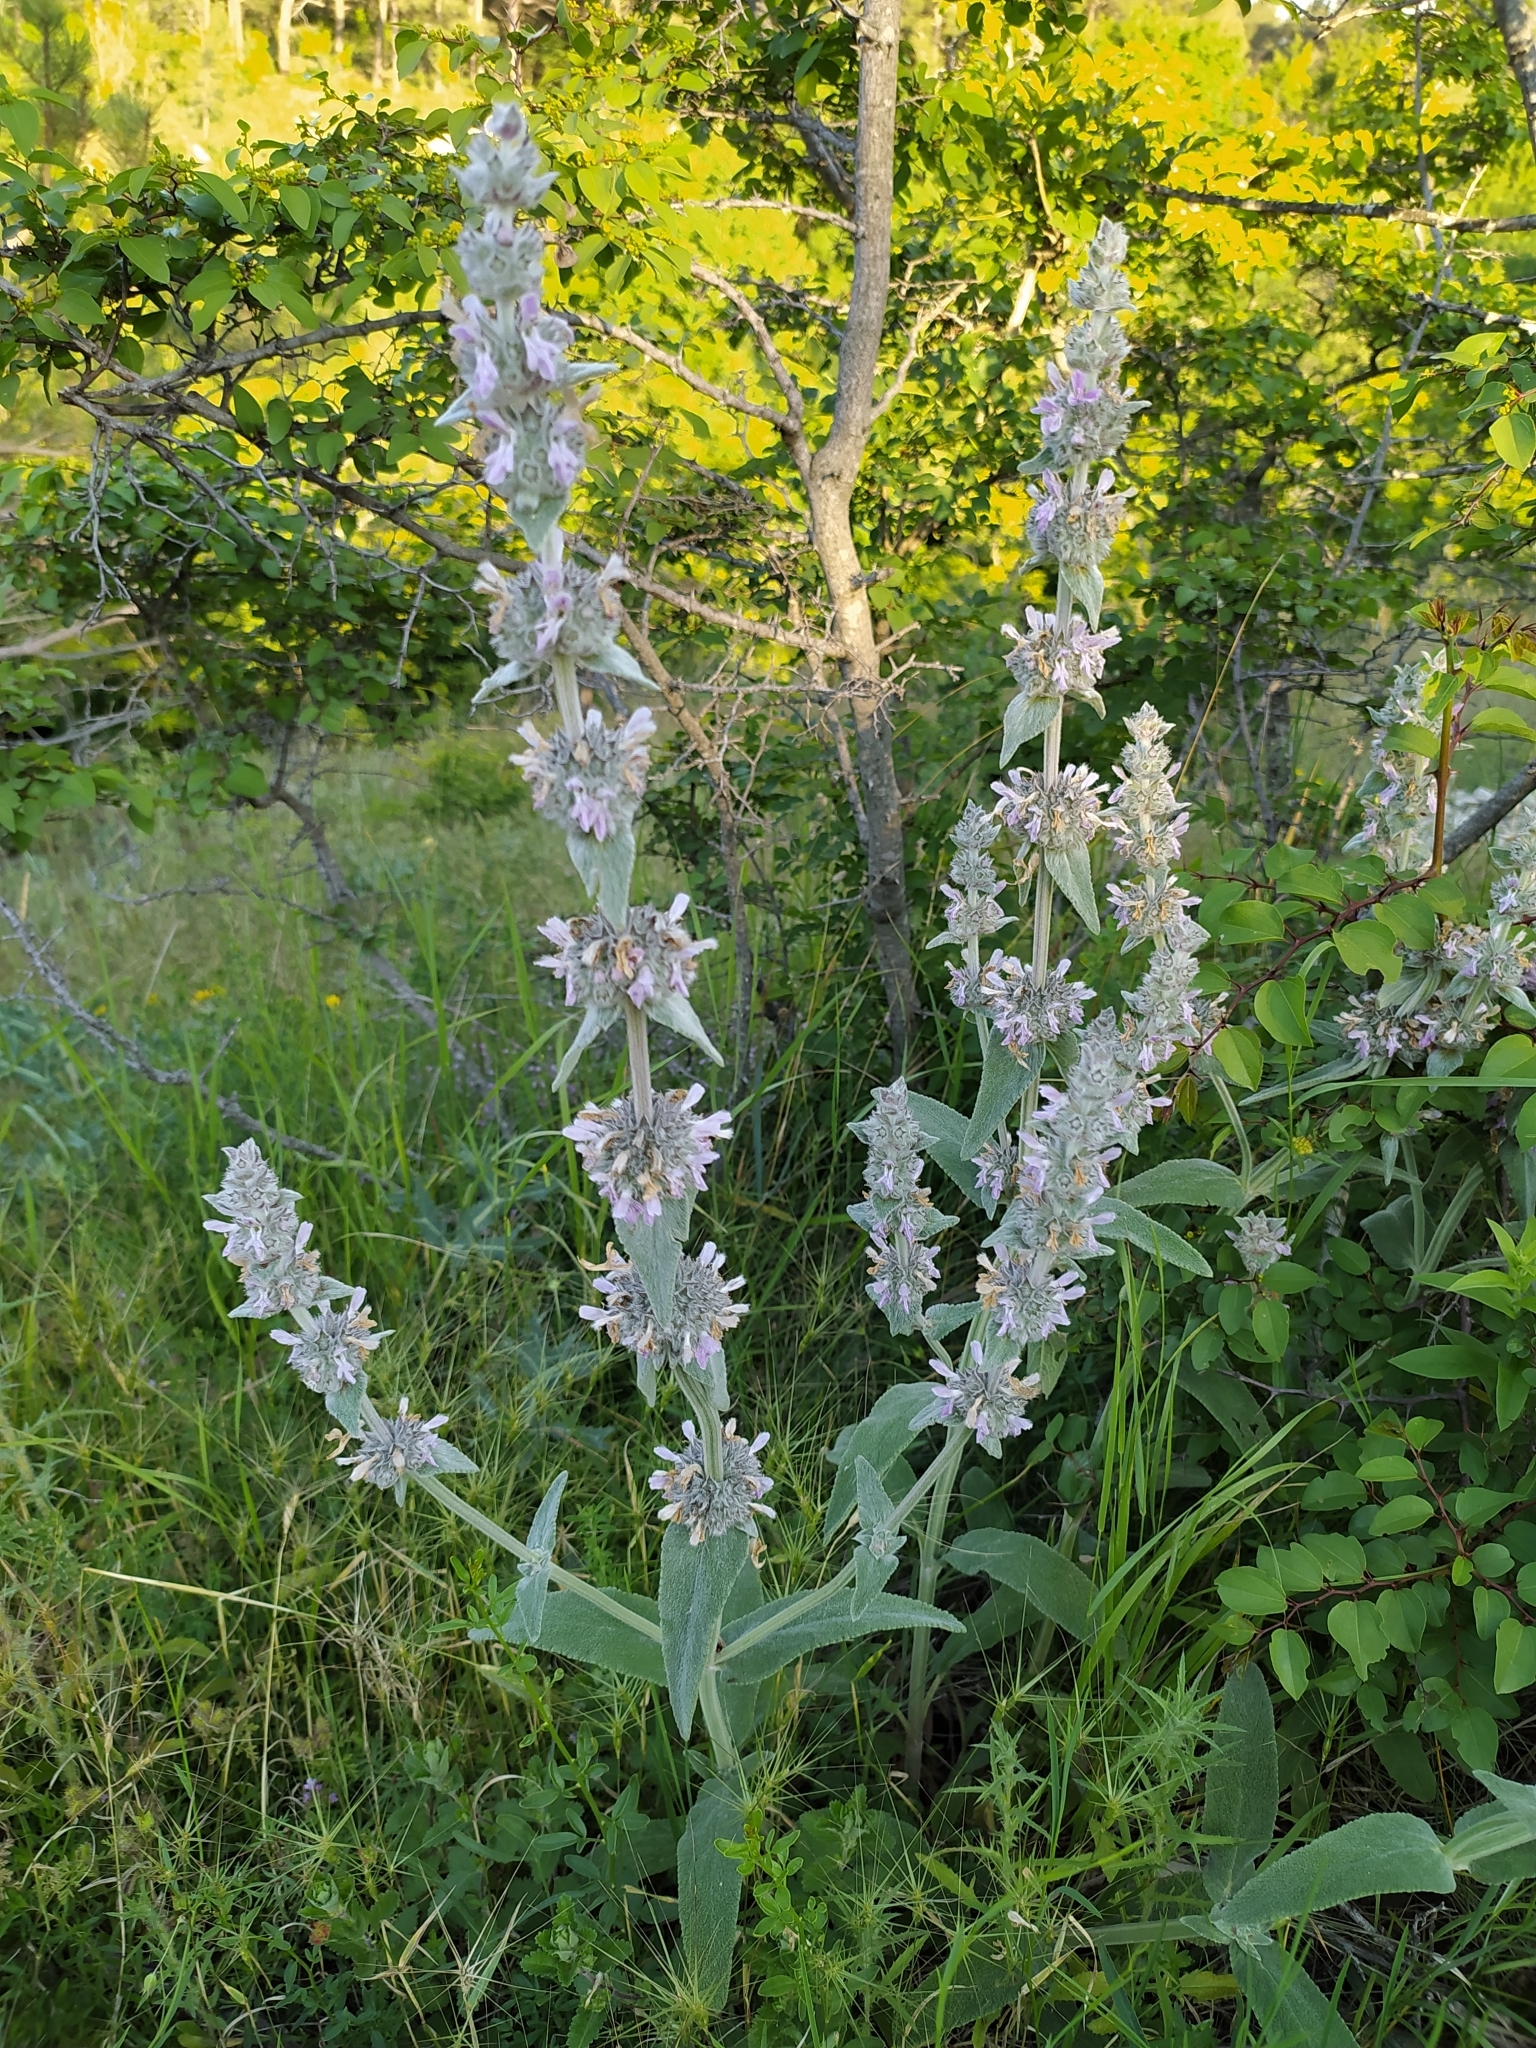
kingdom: Plantae
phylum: Tracheophyta
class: Magnoliopsida
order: Lamiales
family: Lamiaceae
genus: Stachys
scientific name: Stachys cretica
